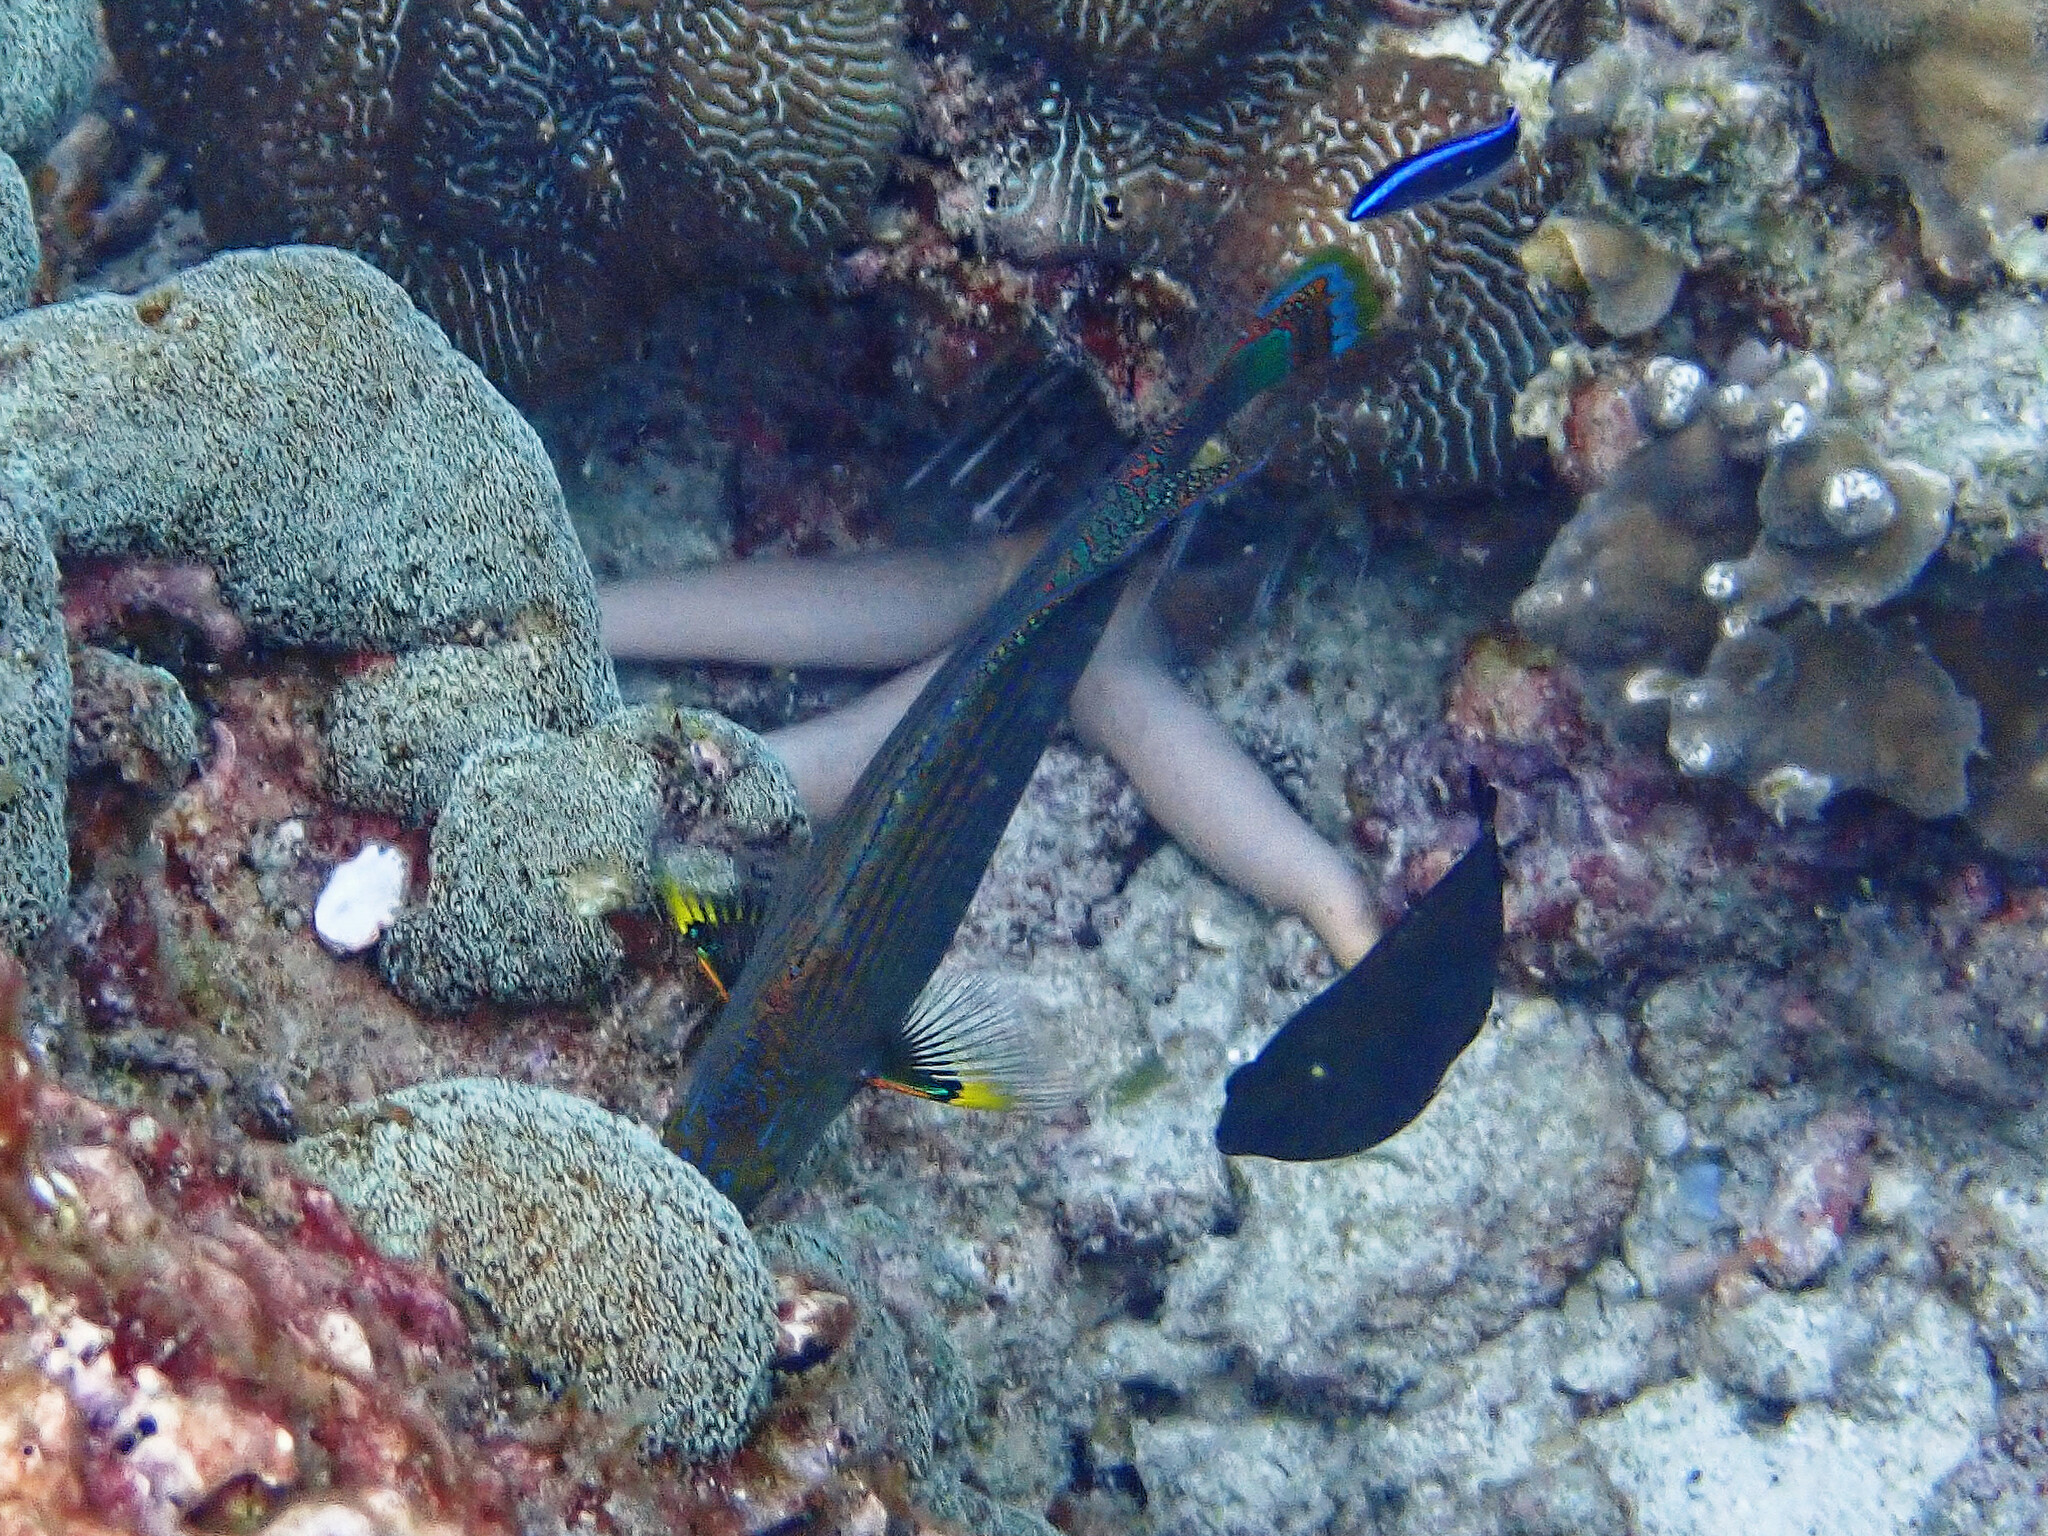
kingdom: Animalia
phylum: Chordata
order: Perciformes
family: Labridae
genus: Halichoeres
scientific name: Halichoeres
